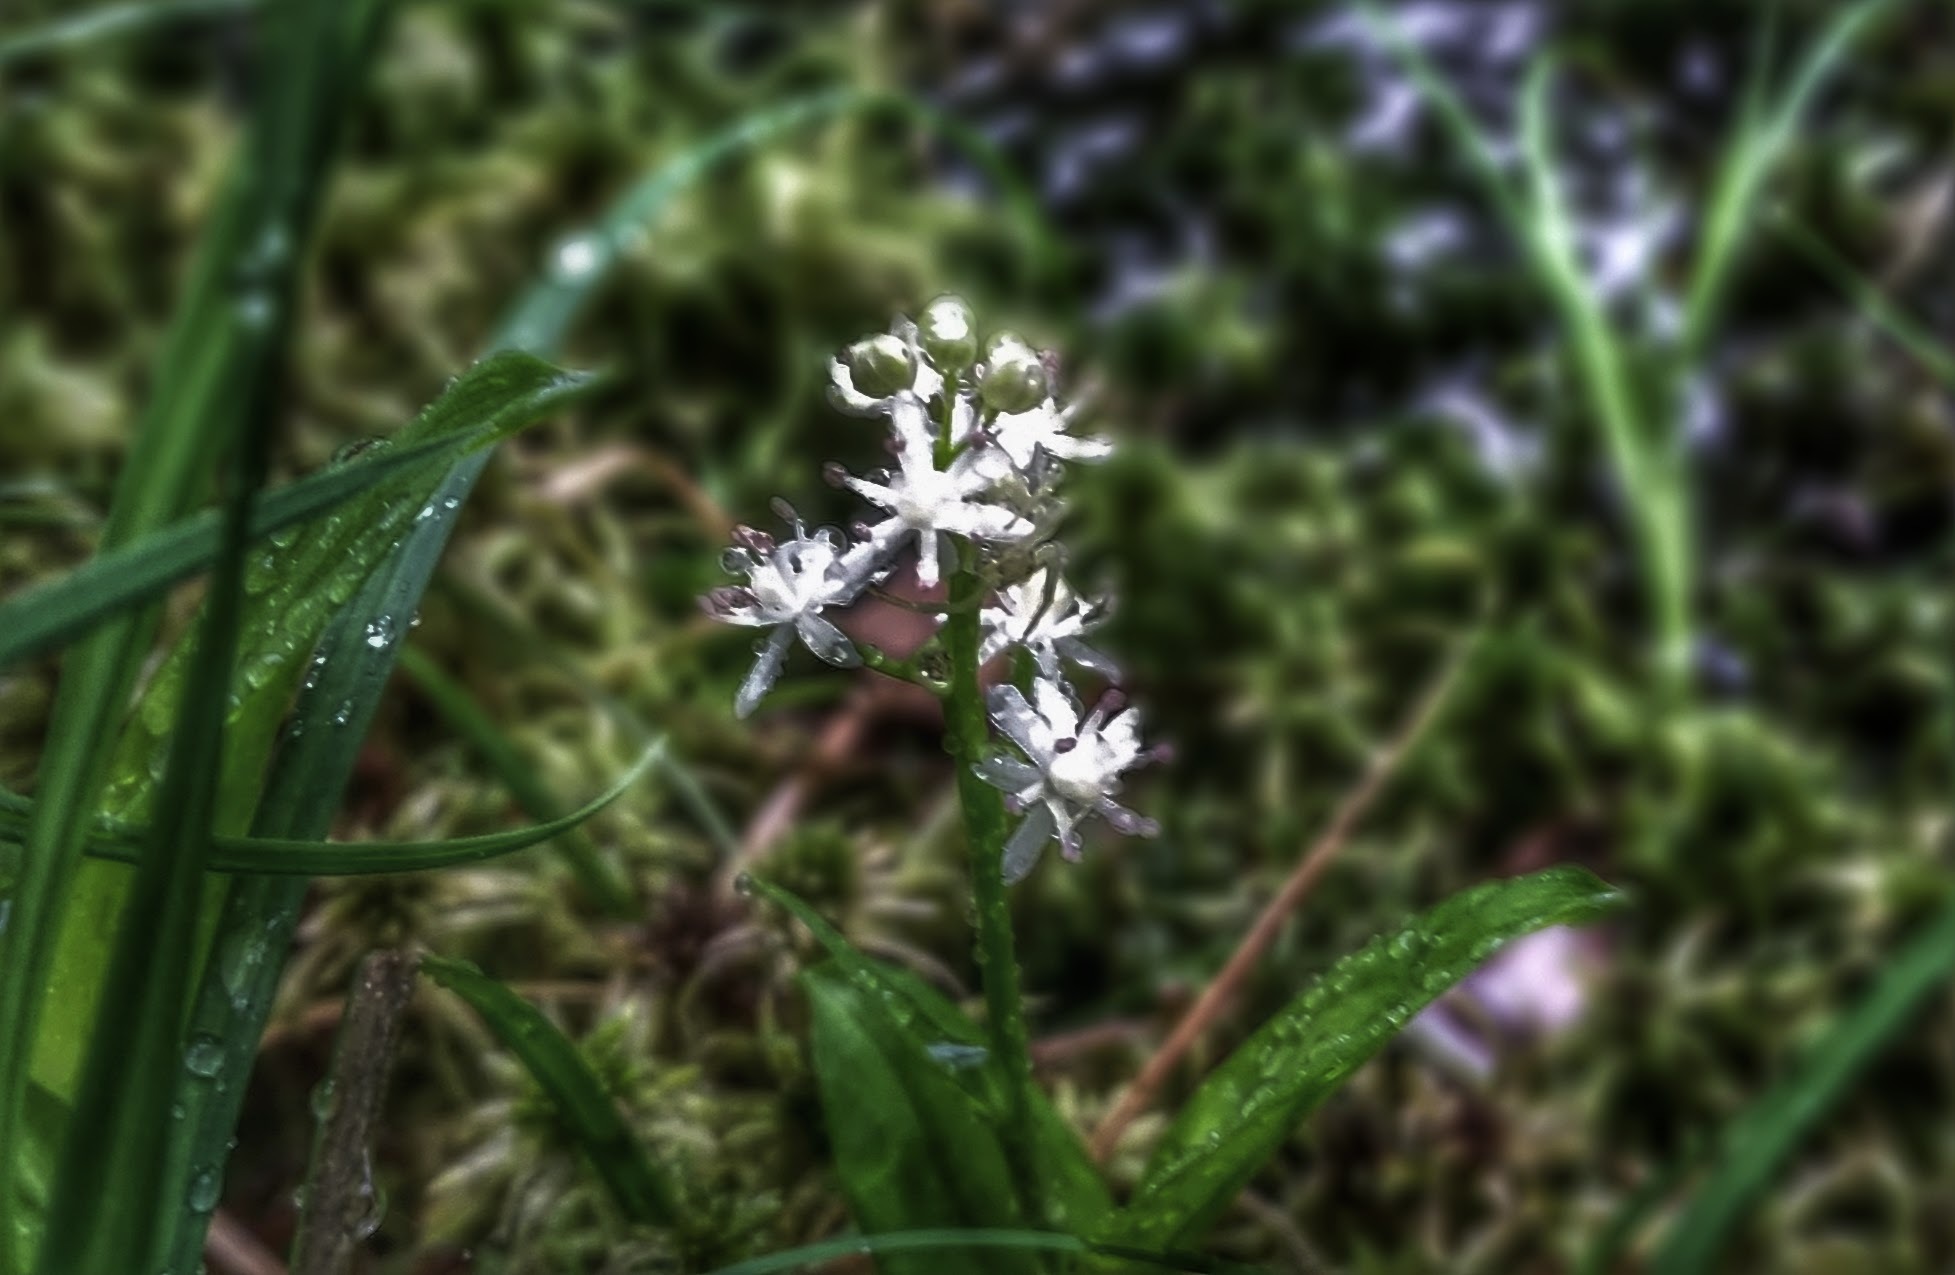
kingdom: Plantae
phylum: Tracheophyta
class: Liliopsida
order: Asparagales
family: Asparagaceae
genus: Maianthemum
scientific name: Maianthemum trifolium
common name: Swamp false solomon's seal
